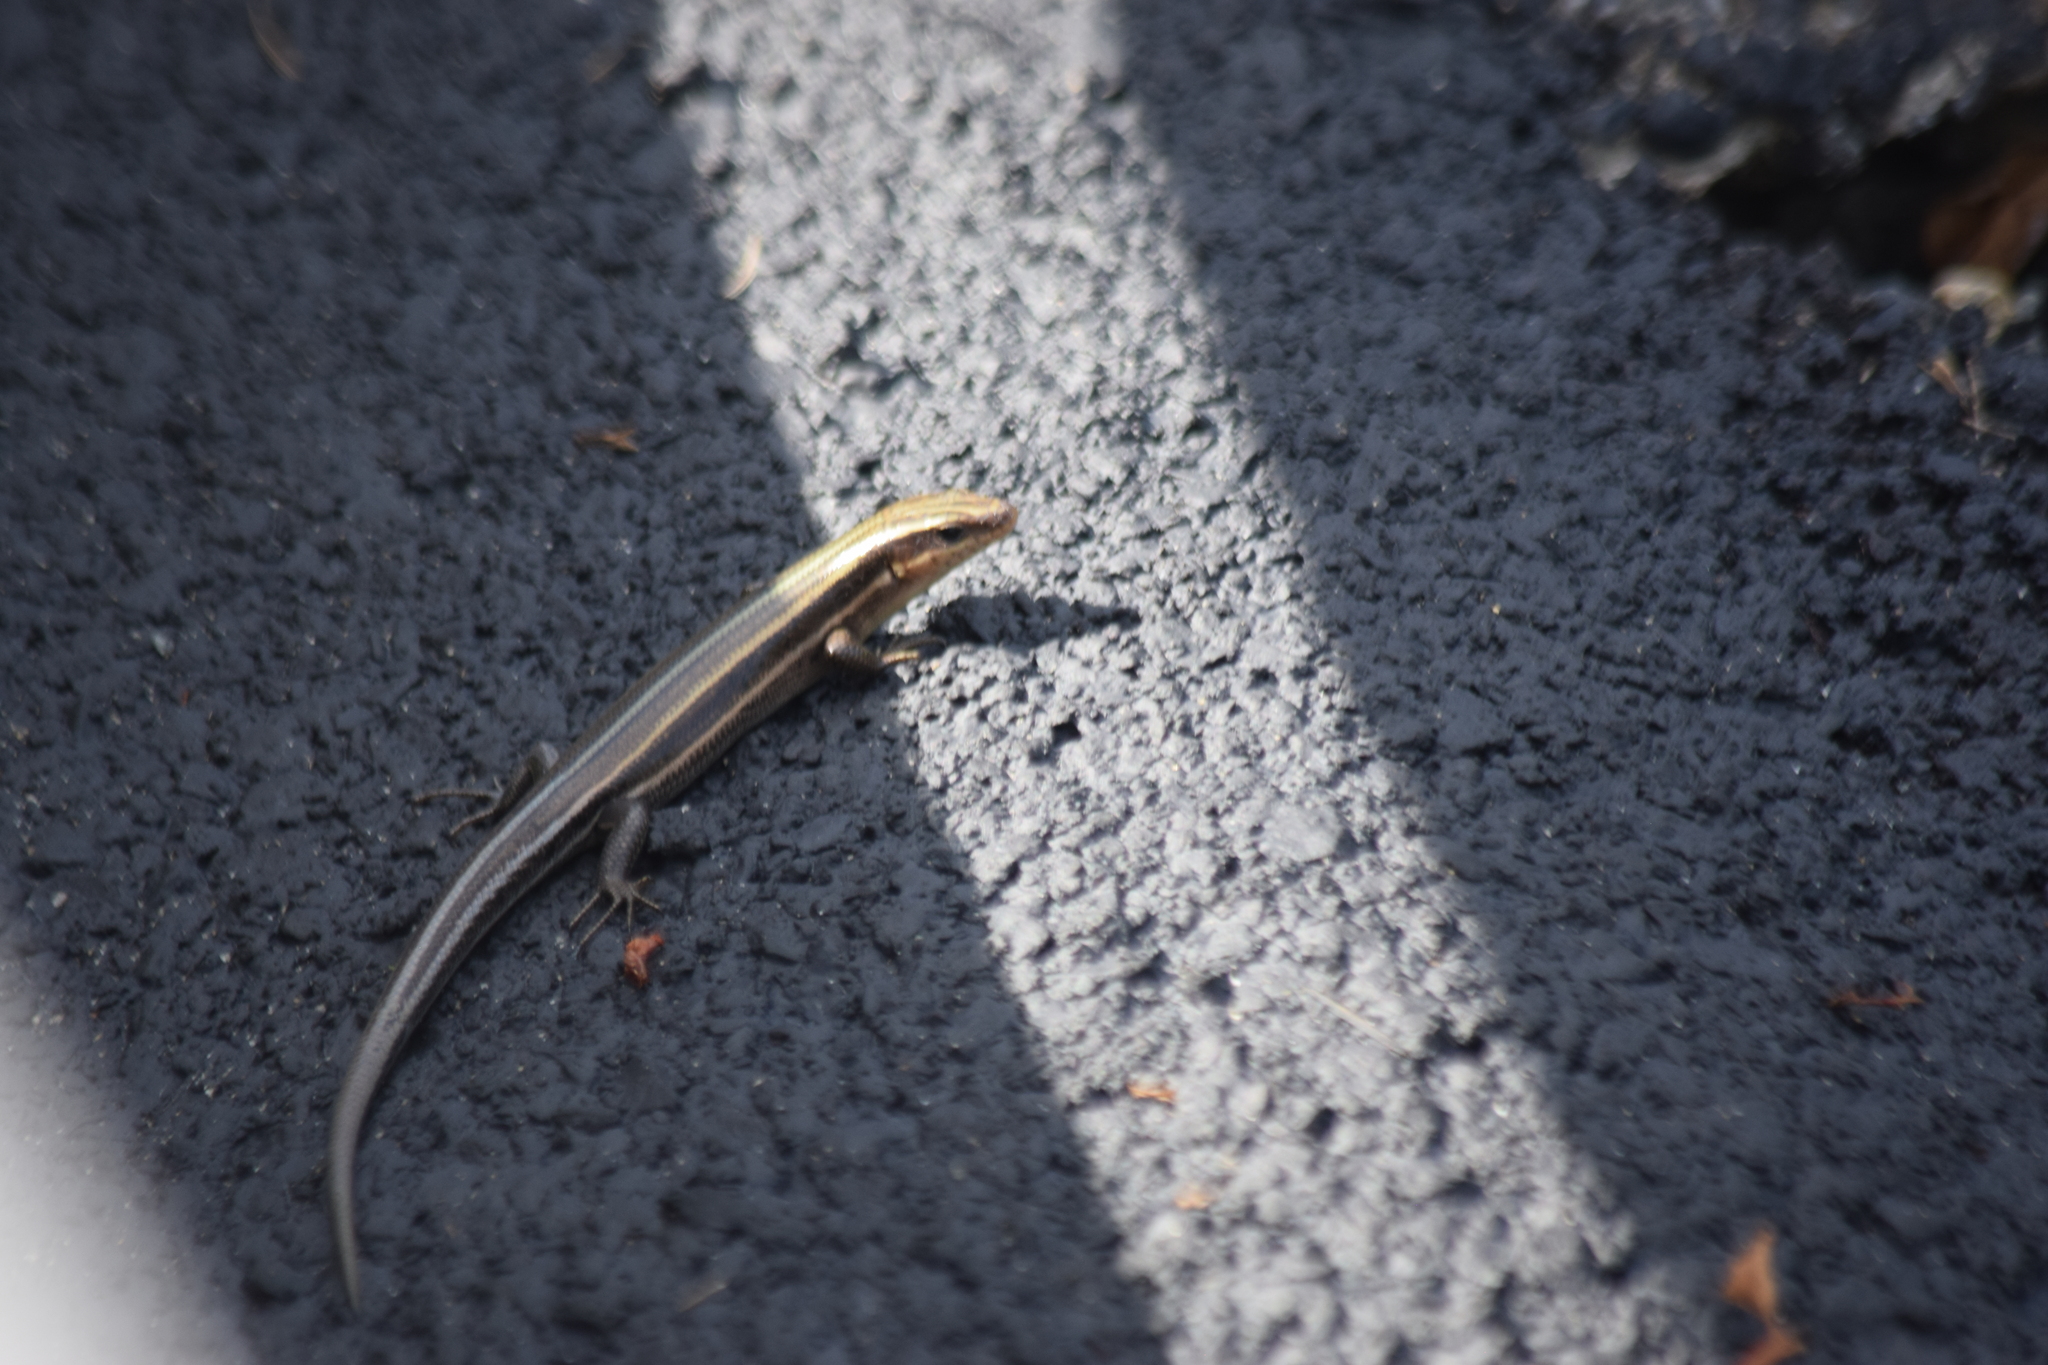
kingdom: Animalia
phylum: Chordata
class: Squamata
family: Scincidae
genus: Plestiodon
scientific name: Plestiodon fasciatus
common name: Five-lined skink
